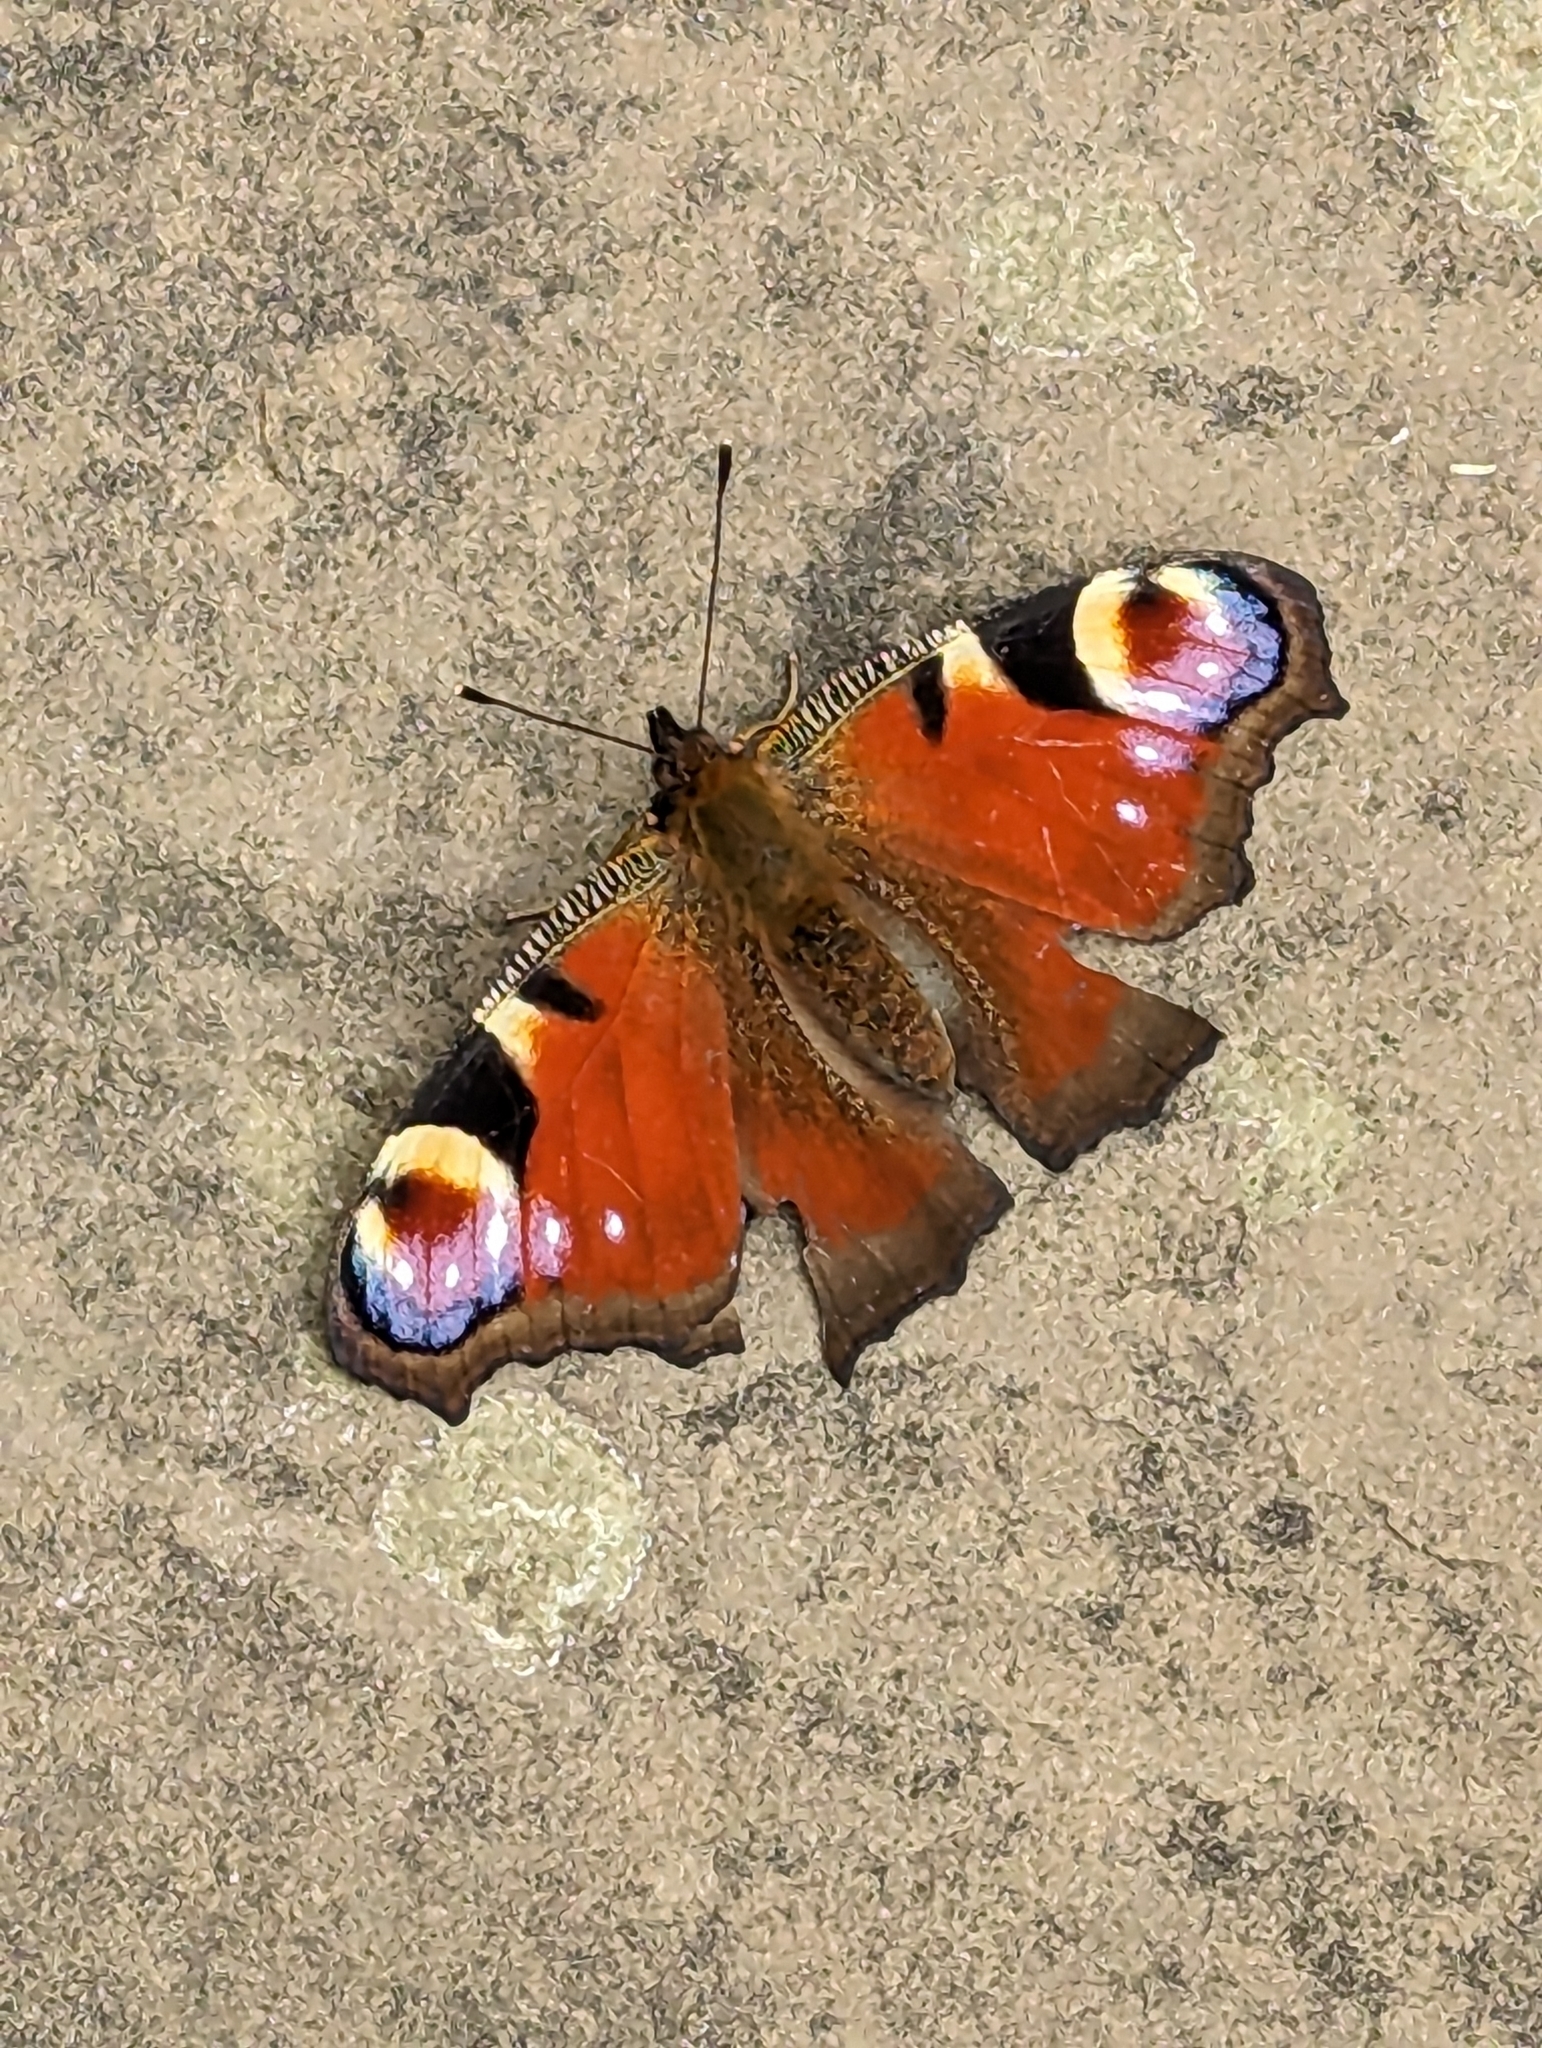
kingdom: Animalia
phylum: Arthropoda
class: Insecta
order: Lepidoptera
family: Nymphalidae
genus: Aglais
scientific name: Aglais io
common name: Peacock
